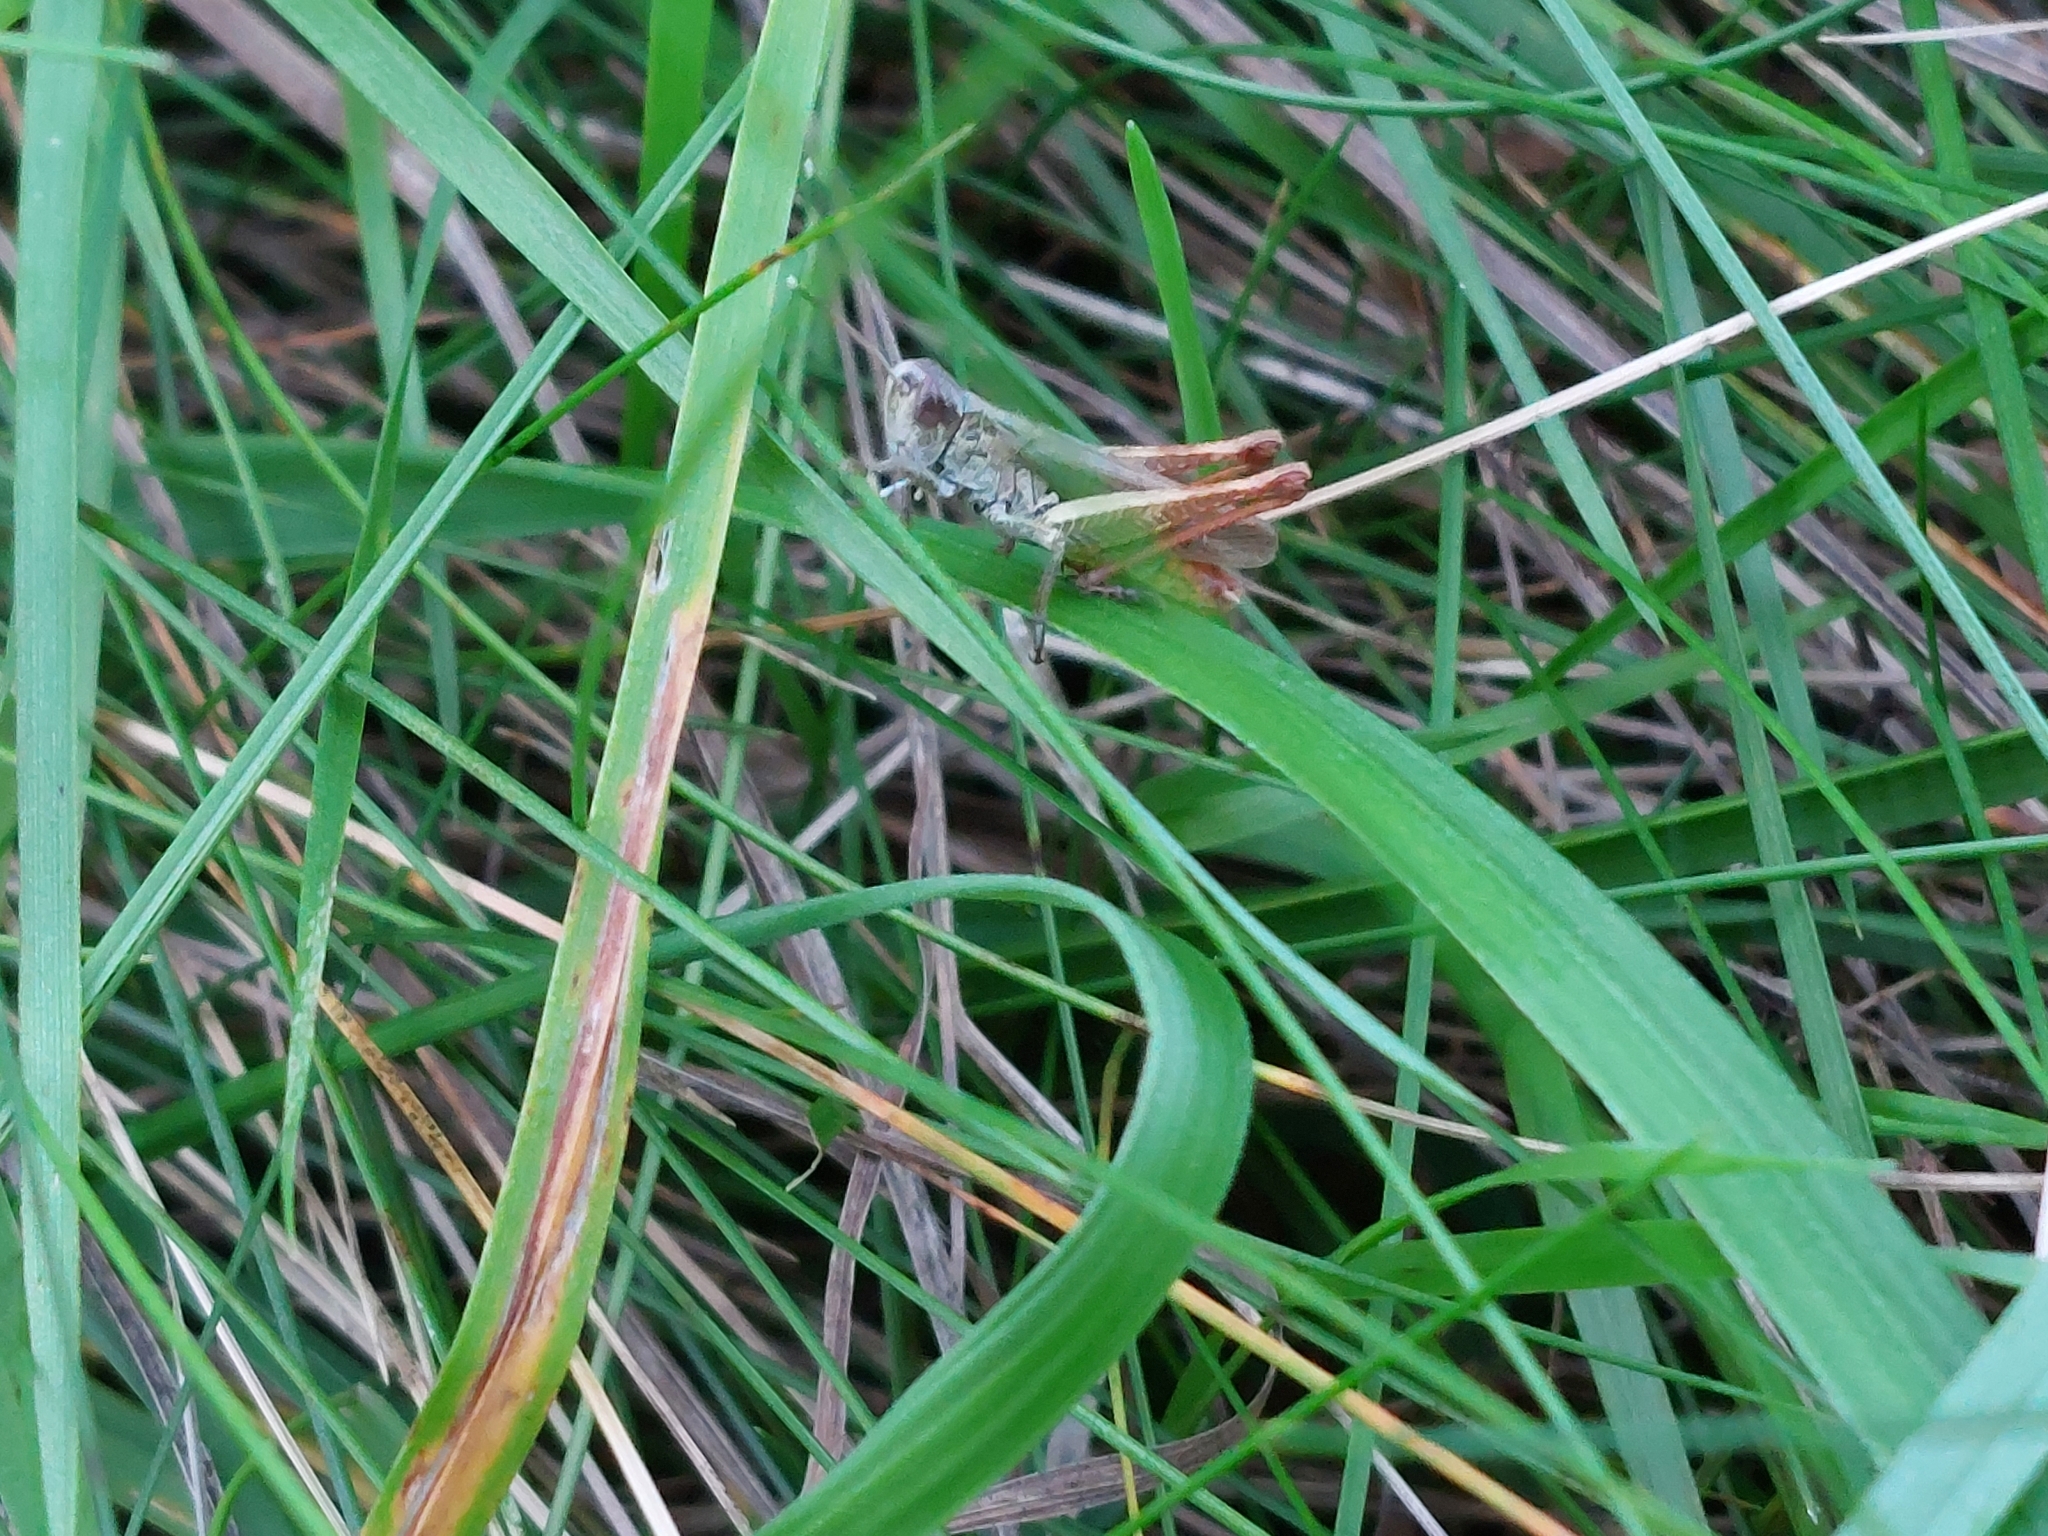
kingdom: Animalia
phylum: Arthropoda
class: Insecta
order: Orthoptera
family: Acrididae
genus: Gomphocerippus
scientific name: Gomphocerippus rufus
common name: Rufous grasshopper
